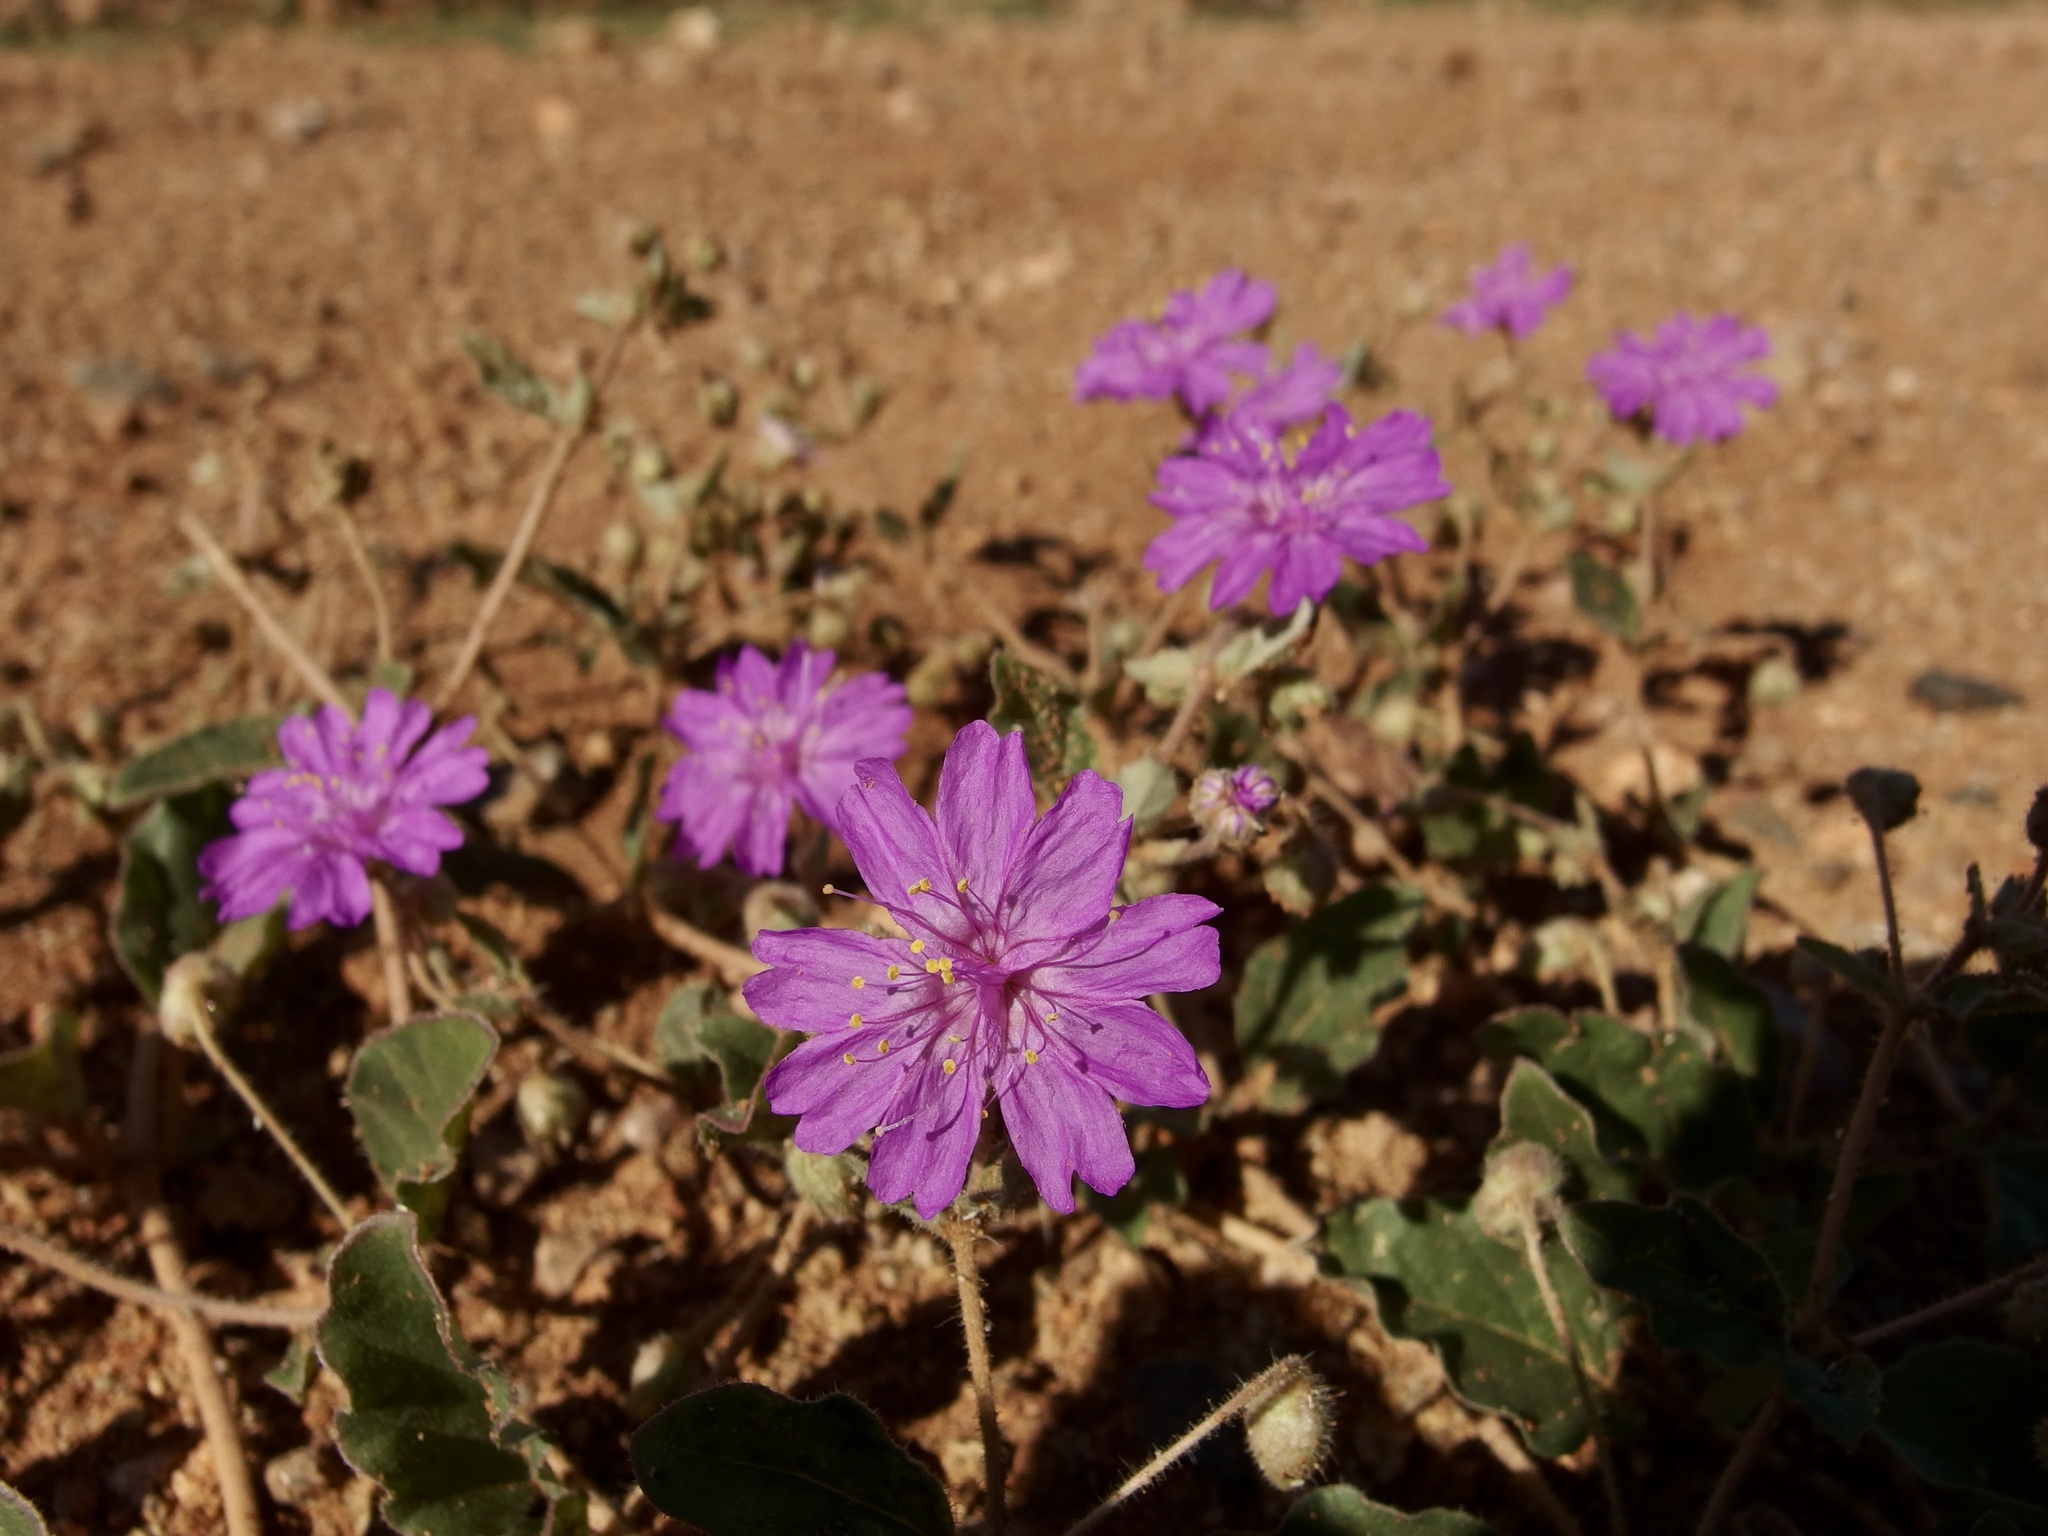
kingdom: Plantae
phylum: Tracheophyta
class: Magnoliopsida
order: Caryophyllales
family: Nyctaginaceae
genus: Allionia
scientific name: Allionia incarnata
